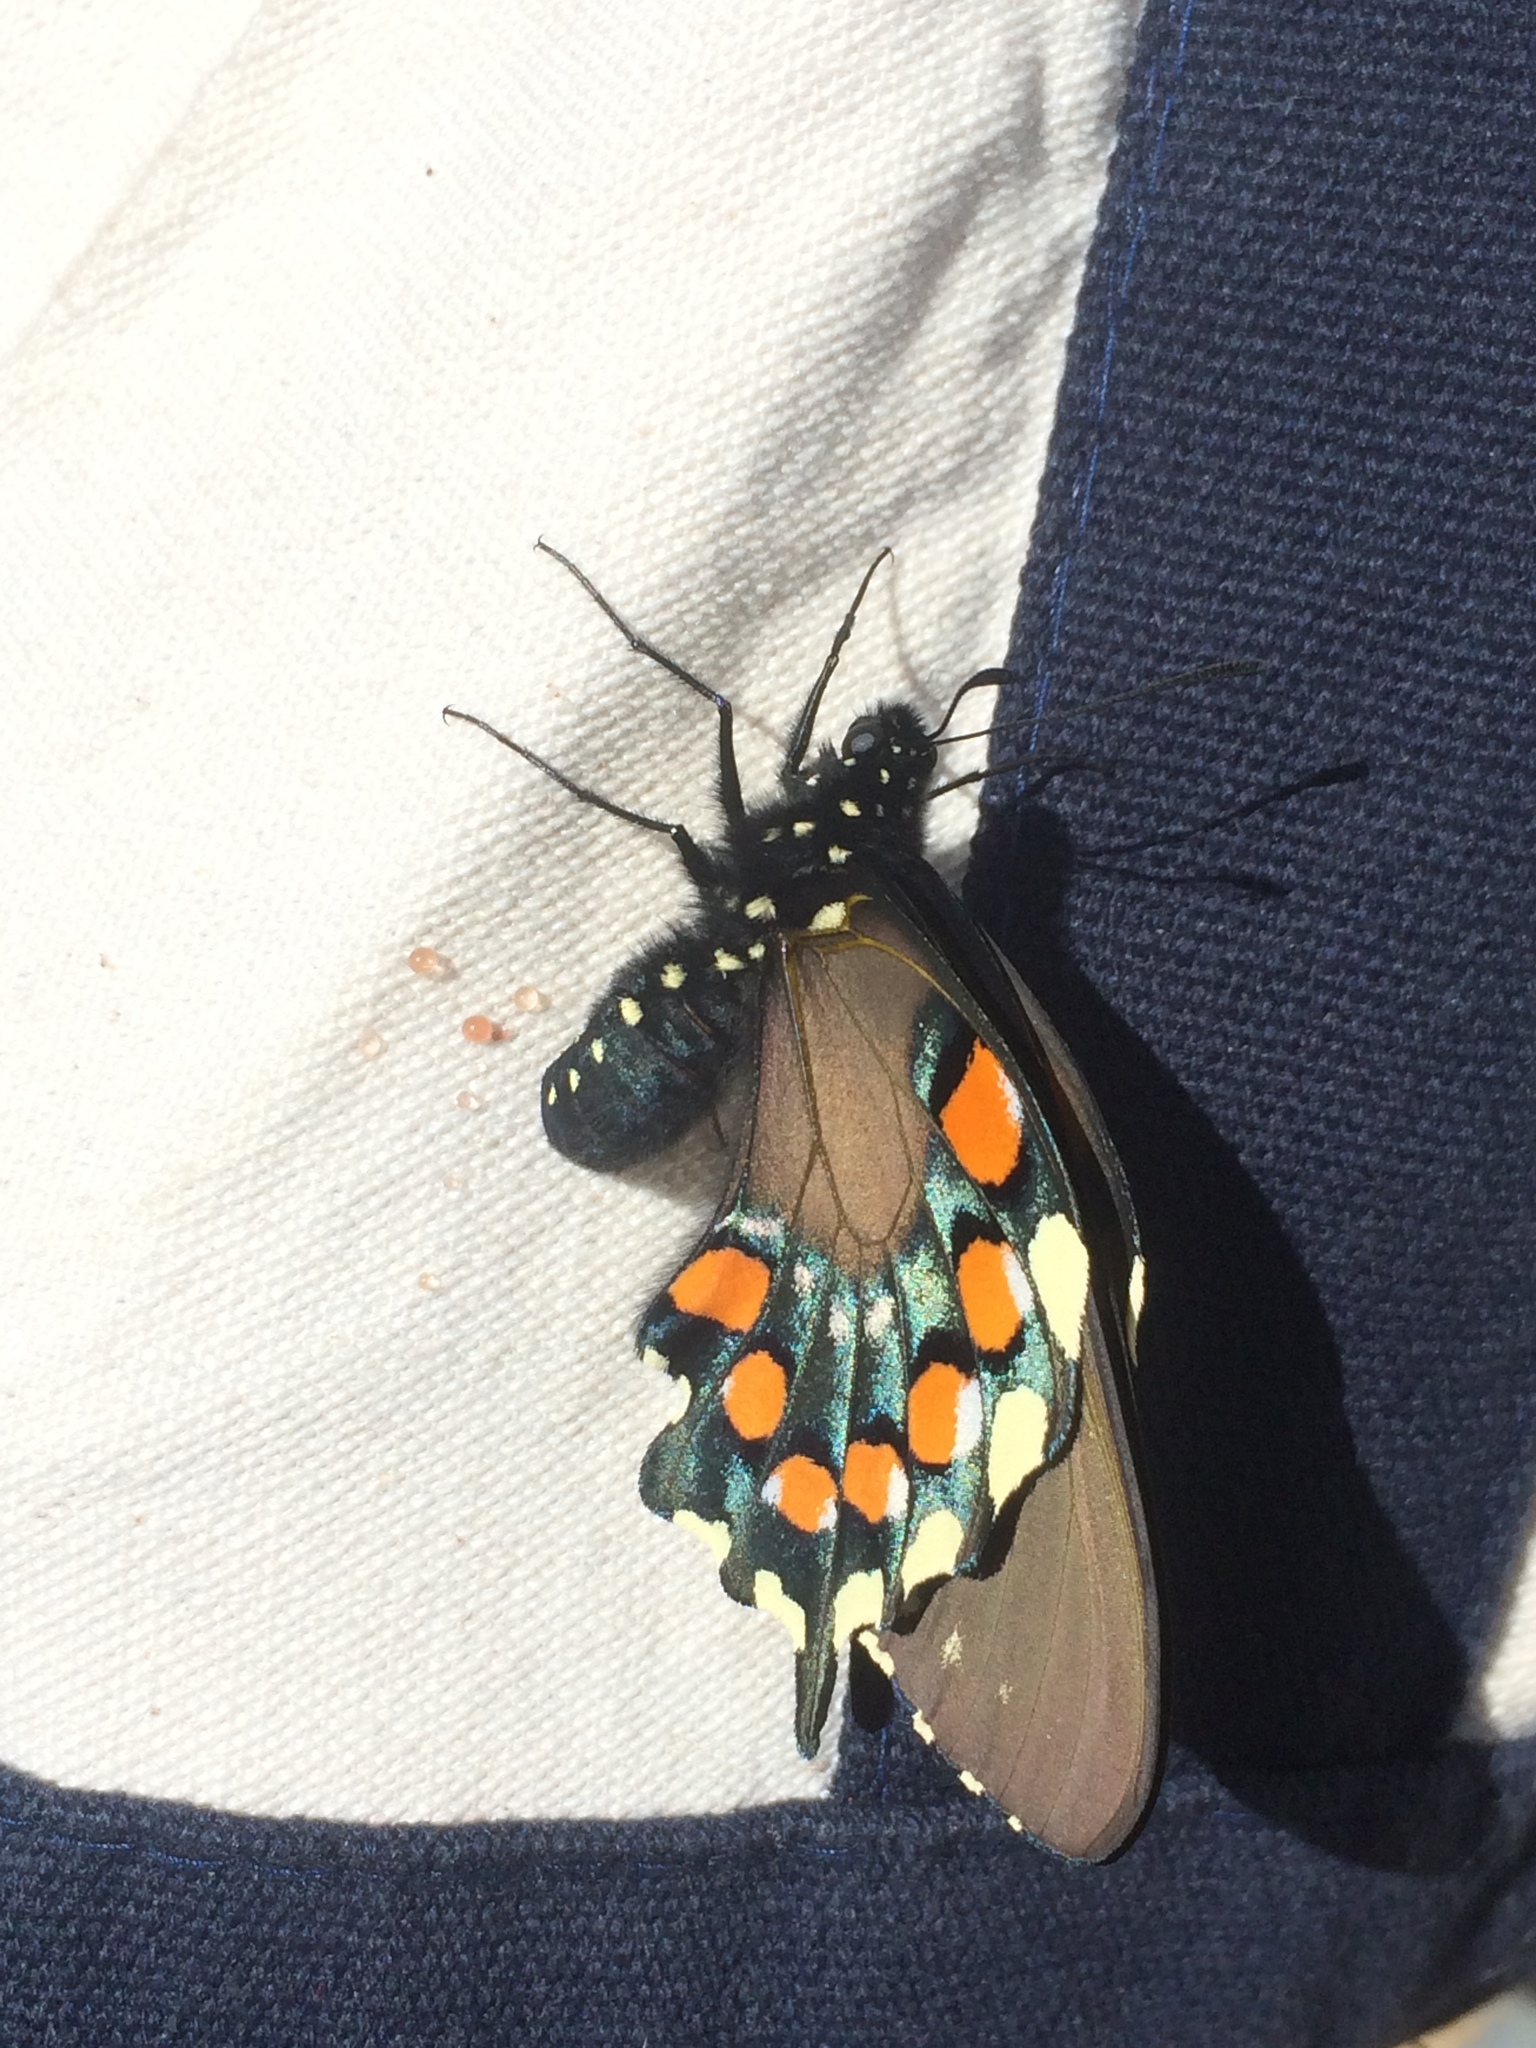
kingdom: Animalia
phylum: Arthropoda
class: Insecta
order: Lepidoptera
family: Papilionidae
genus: Battus
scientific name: Battus philenor
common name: Pipevine swallowtail
